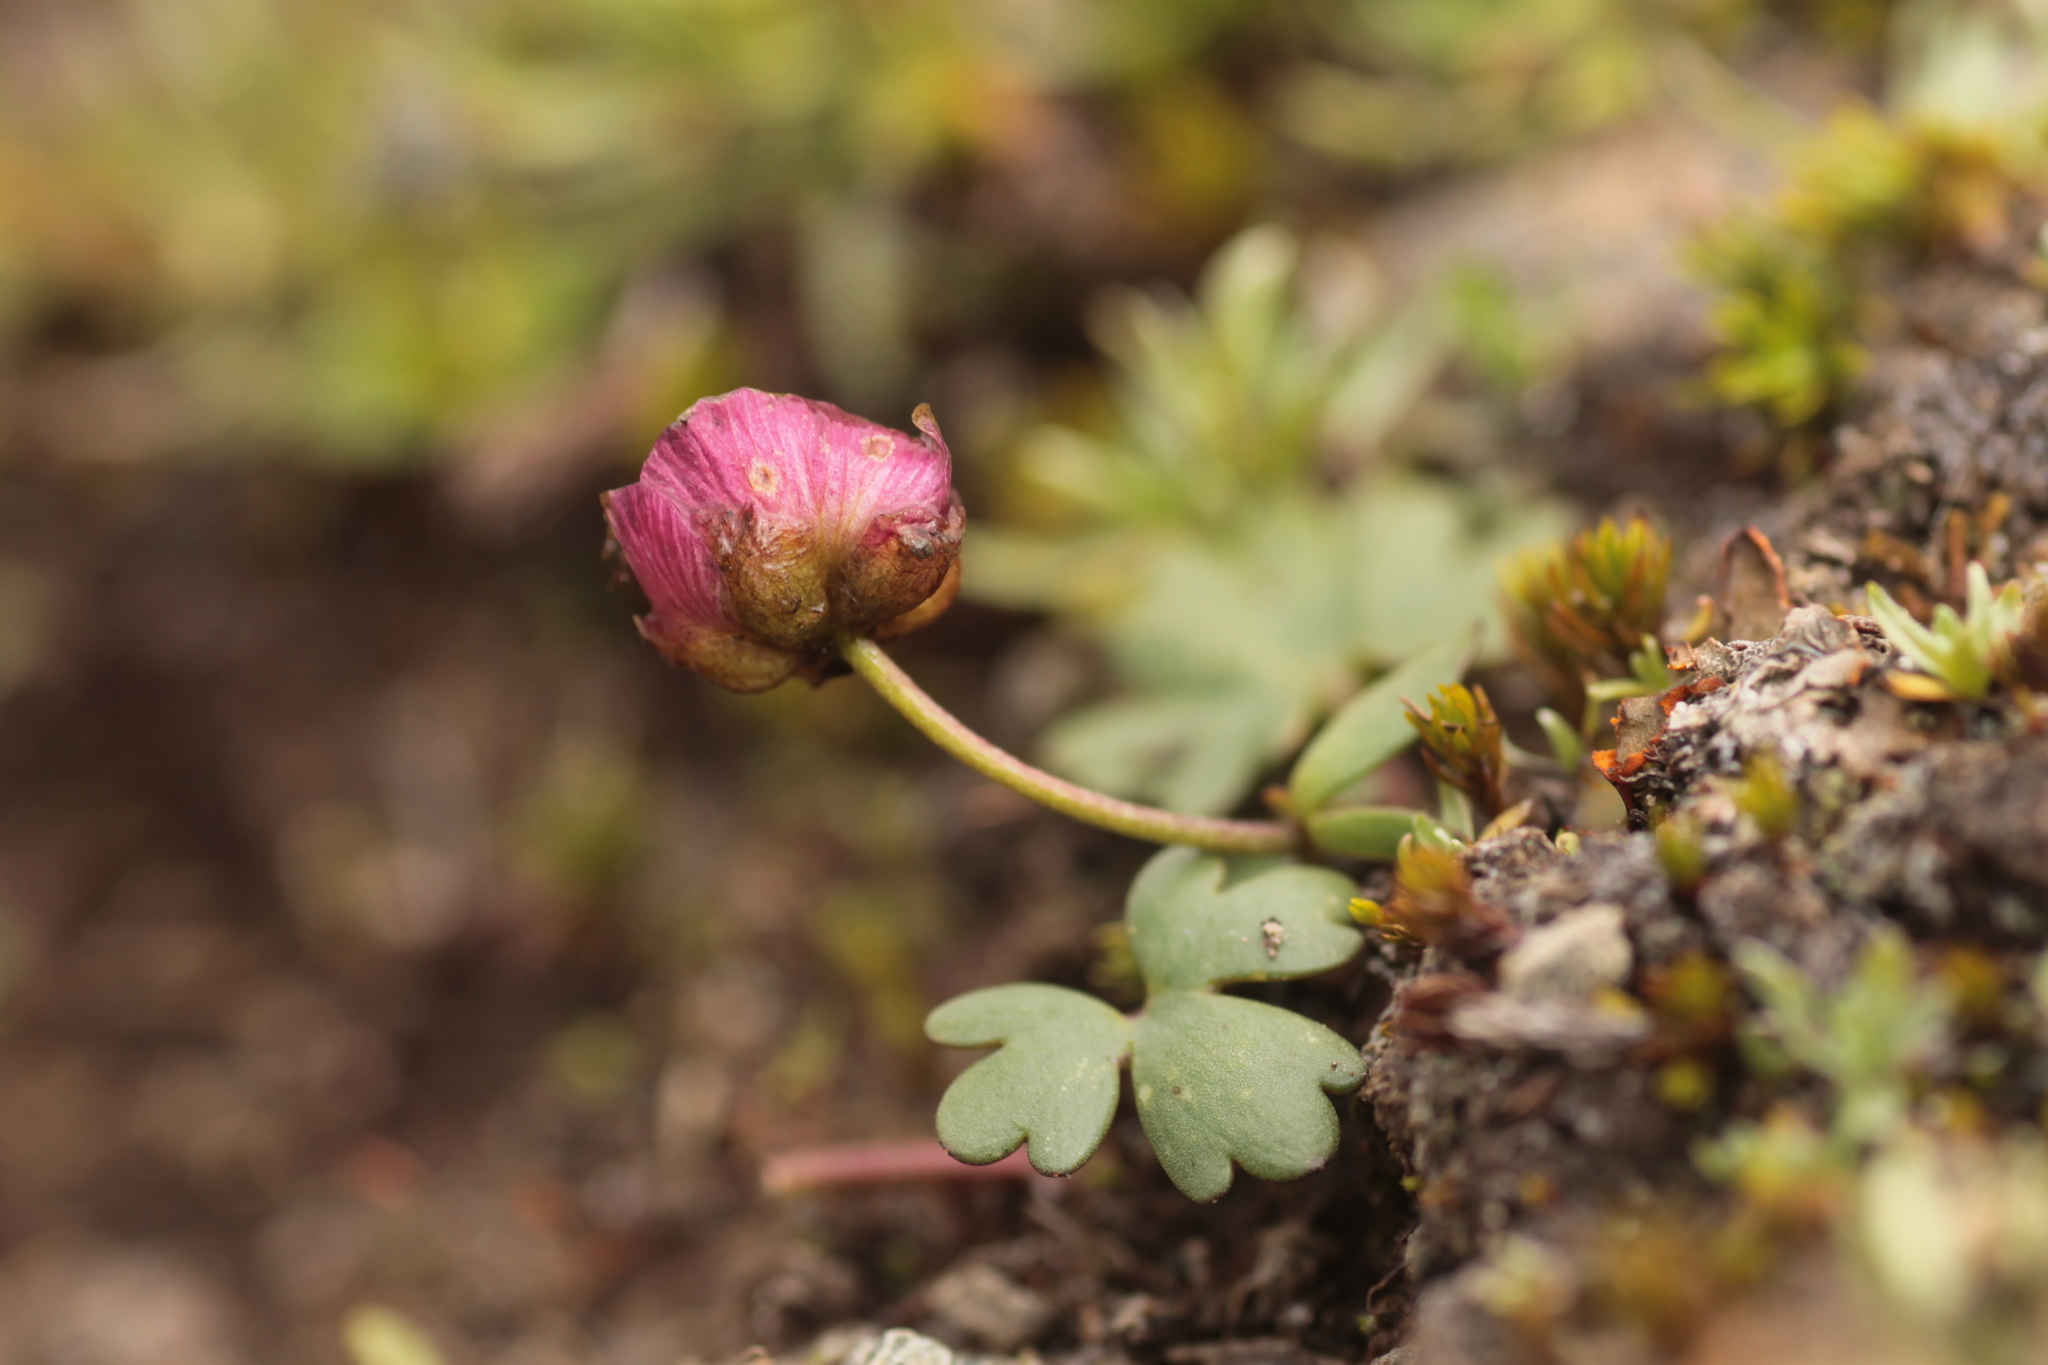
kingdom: Plantae
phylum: Tracheophyta
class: Magnoliopsida
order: Ranunculales
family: Ranunculaceae
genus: Ranunculus
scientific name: Ranunculus glacialis
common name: Glacier buttercup
